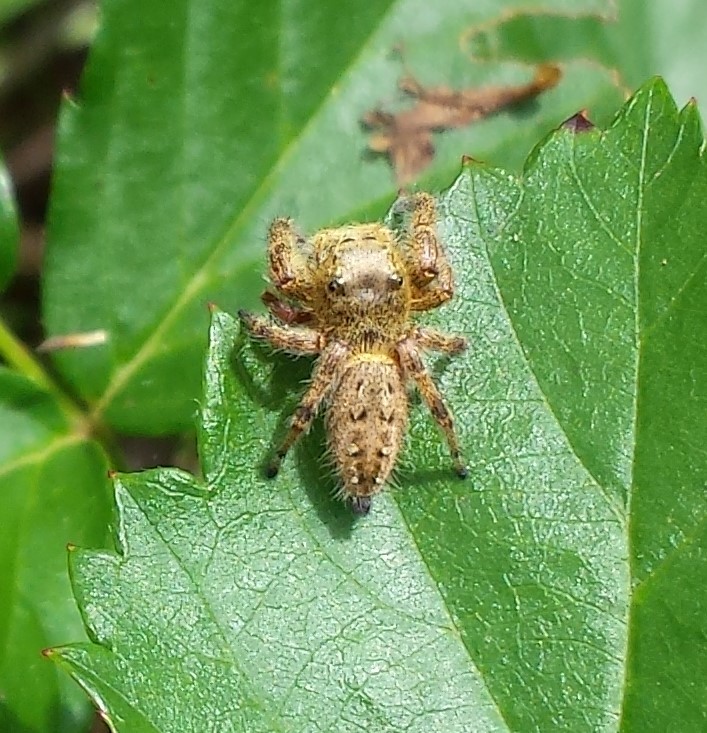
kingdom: Animalia
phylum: Arthropoda
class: Arachnida
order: Araneae
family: Salticidae
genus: Phidippus
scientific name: Phidippus clarus
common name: Brilliant jumping spider
